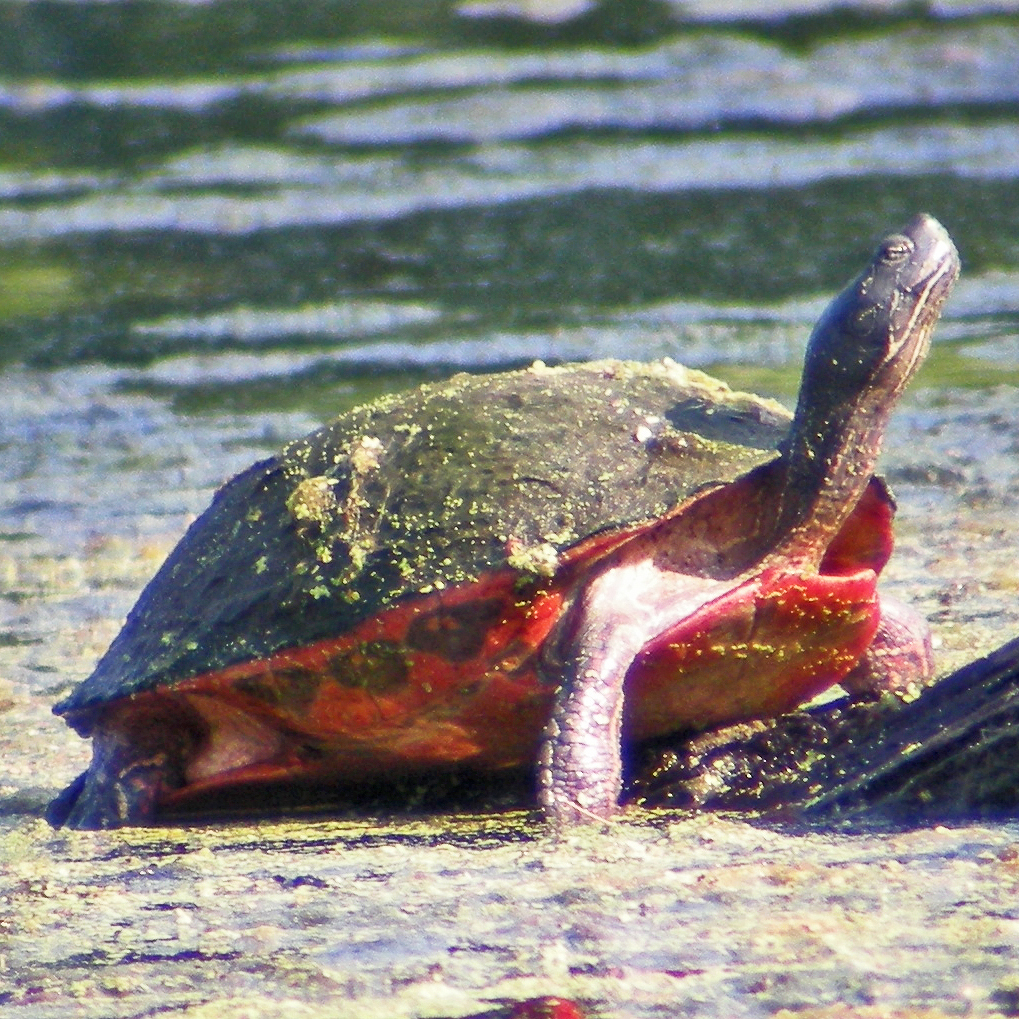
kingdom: Animalia
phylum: Chordata
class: Testudines
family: Emydidae
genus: Pseudemys
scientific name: Pseudemys rubriventris
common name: American red-bellied turtle
